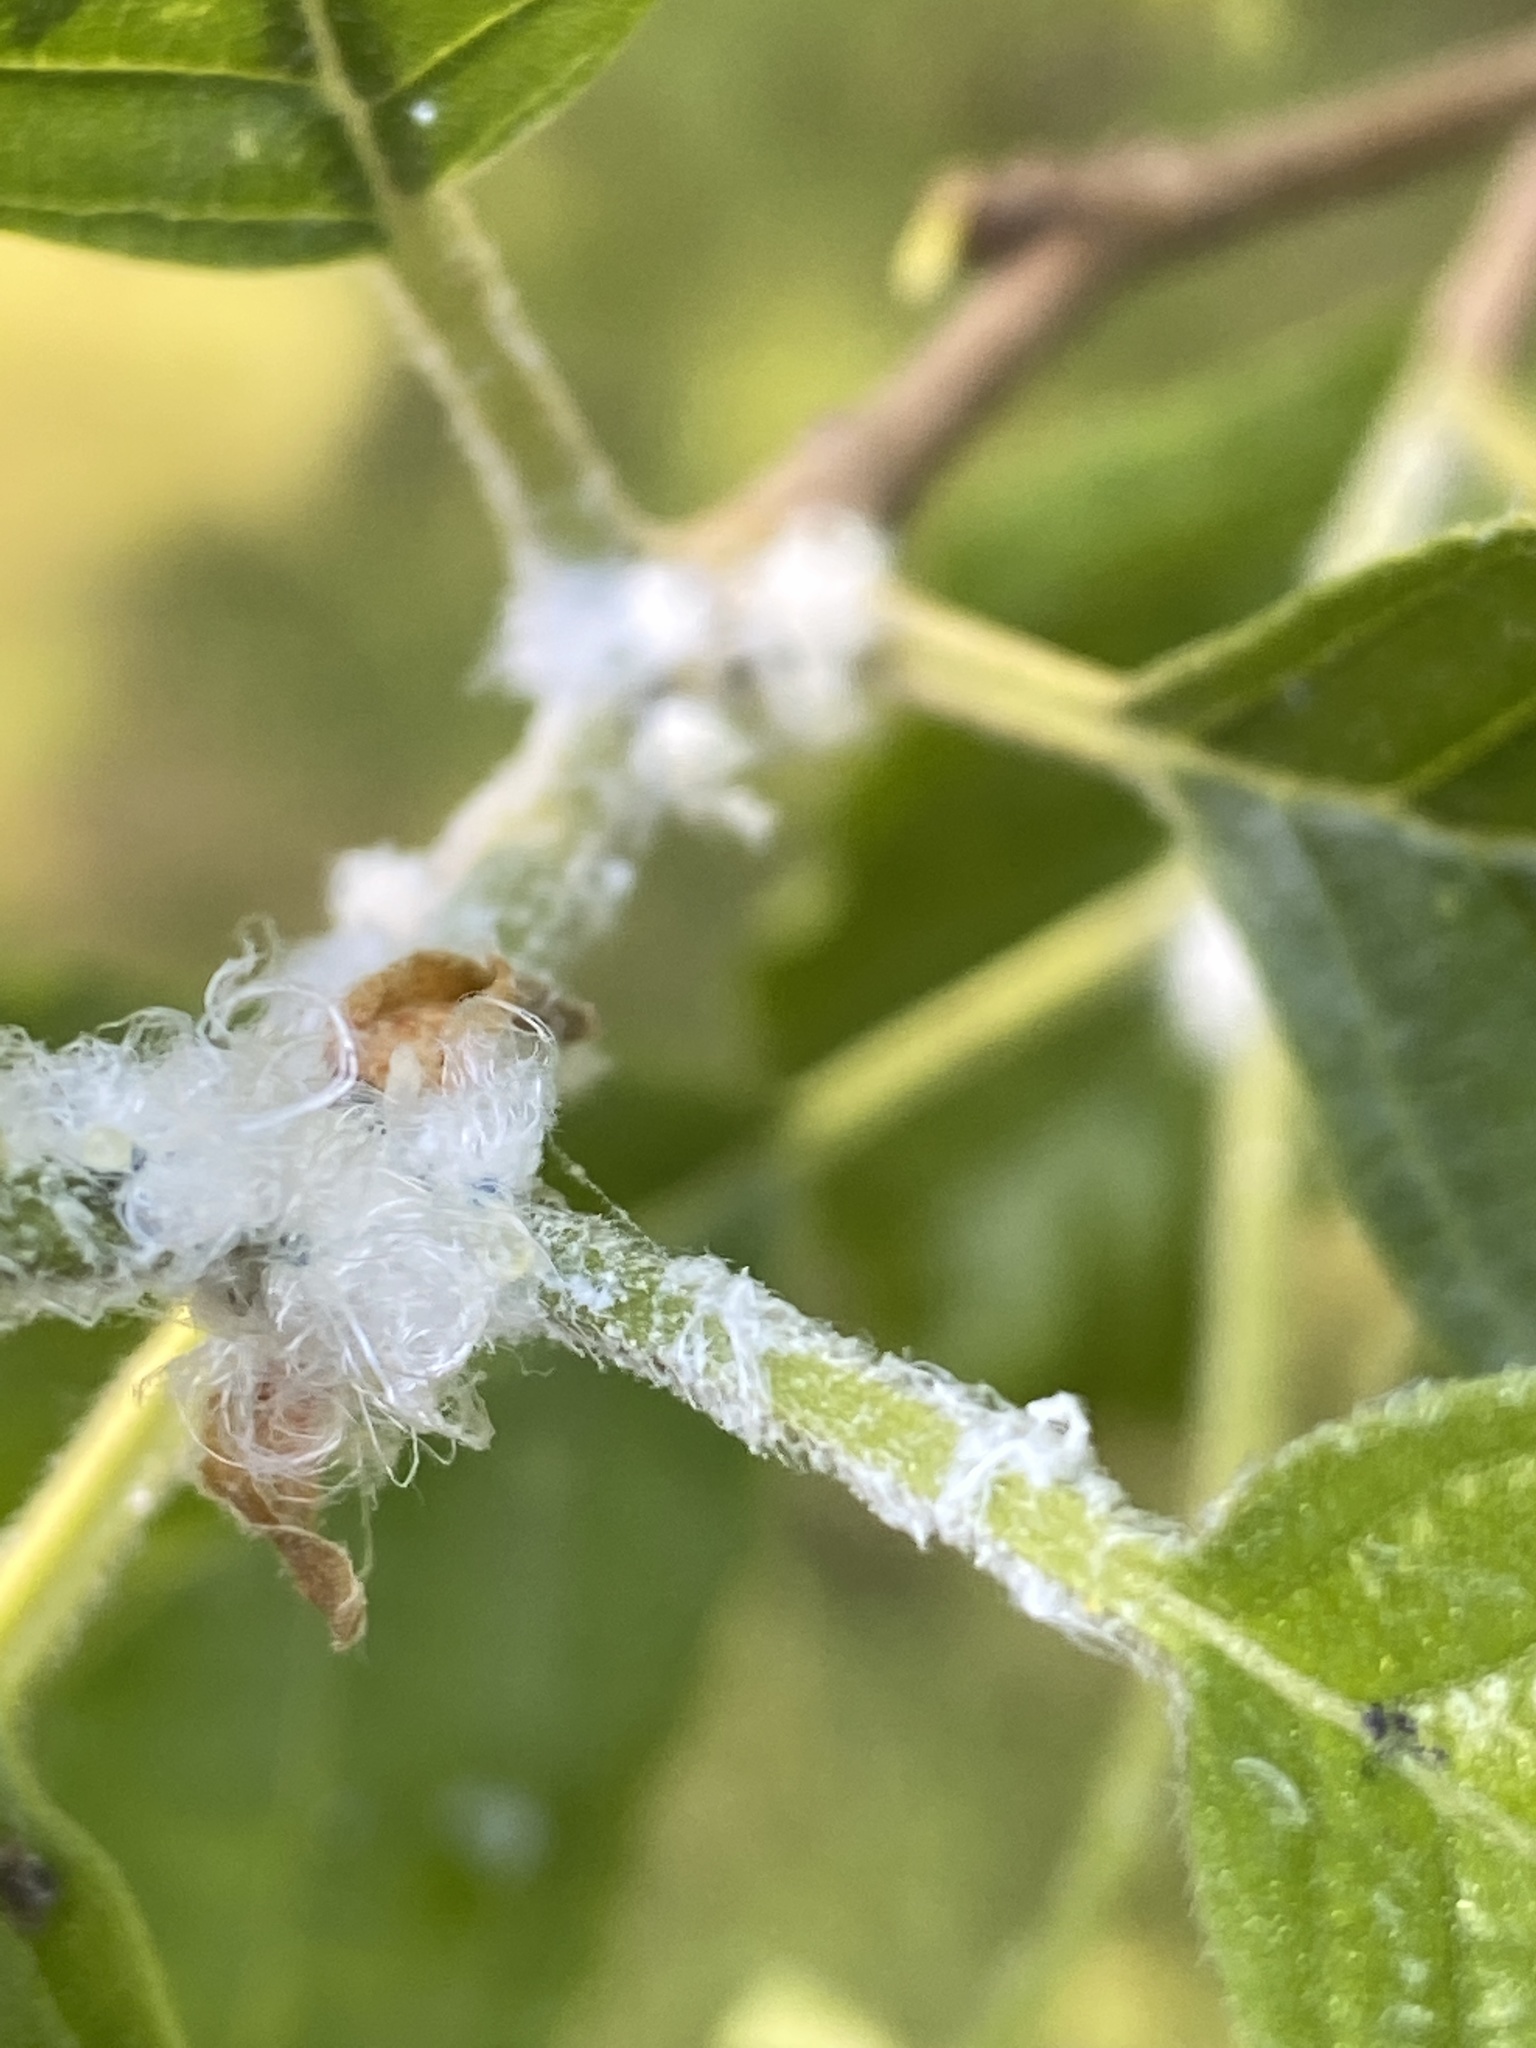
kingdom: Animalia
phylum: Arthropoda
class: Insecta
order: Hemiptera
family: Psyllidae
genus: Psylla
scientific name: Psylla alni
